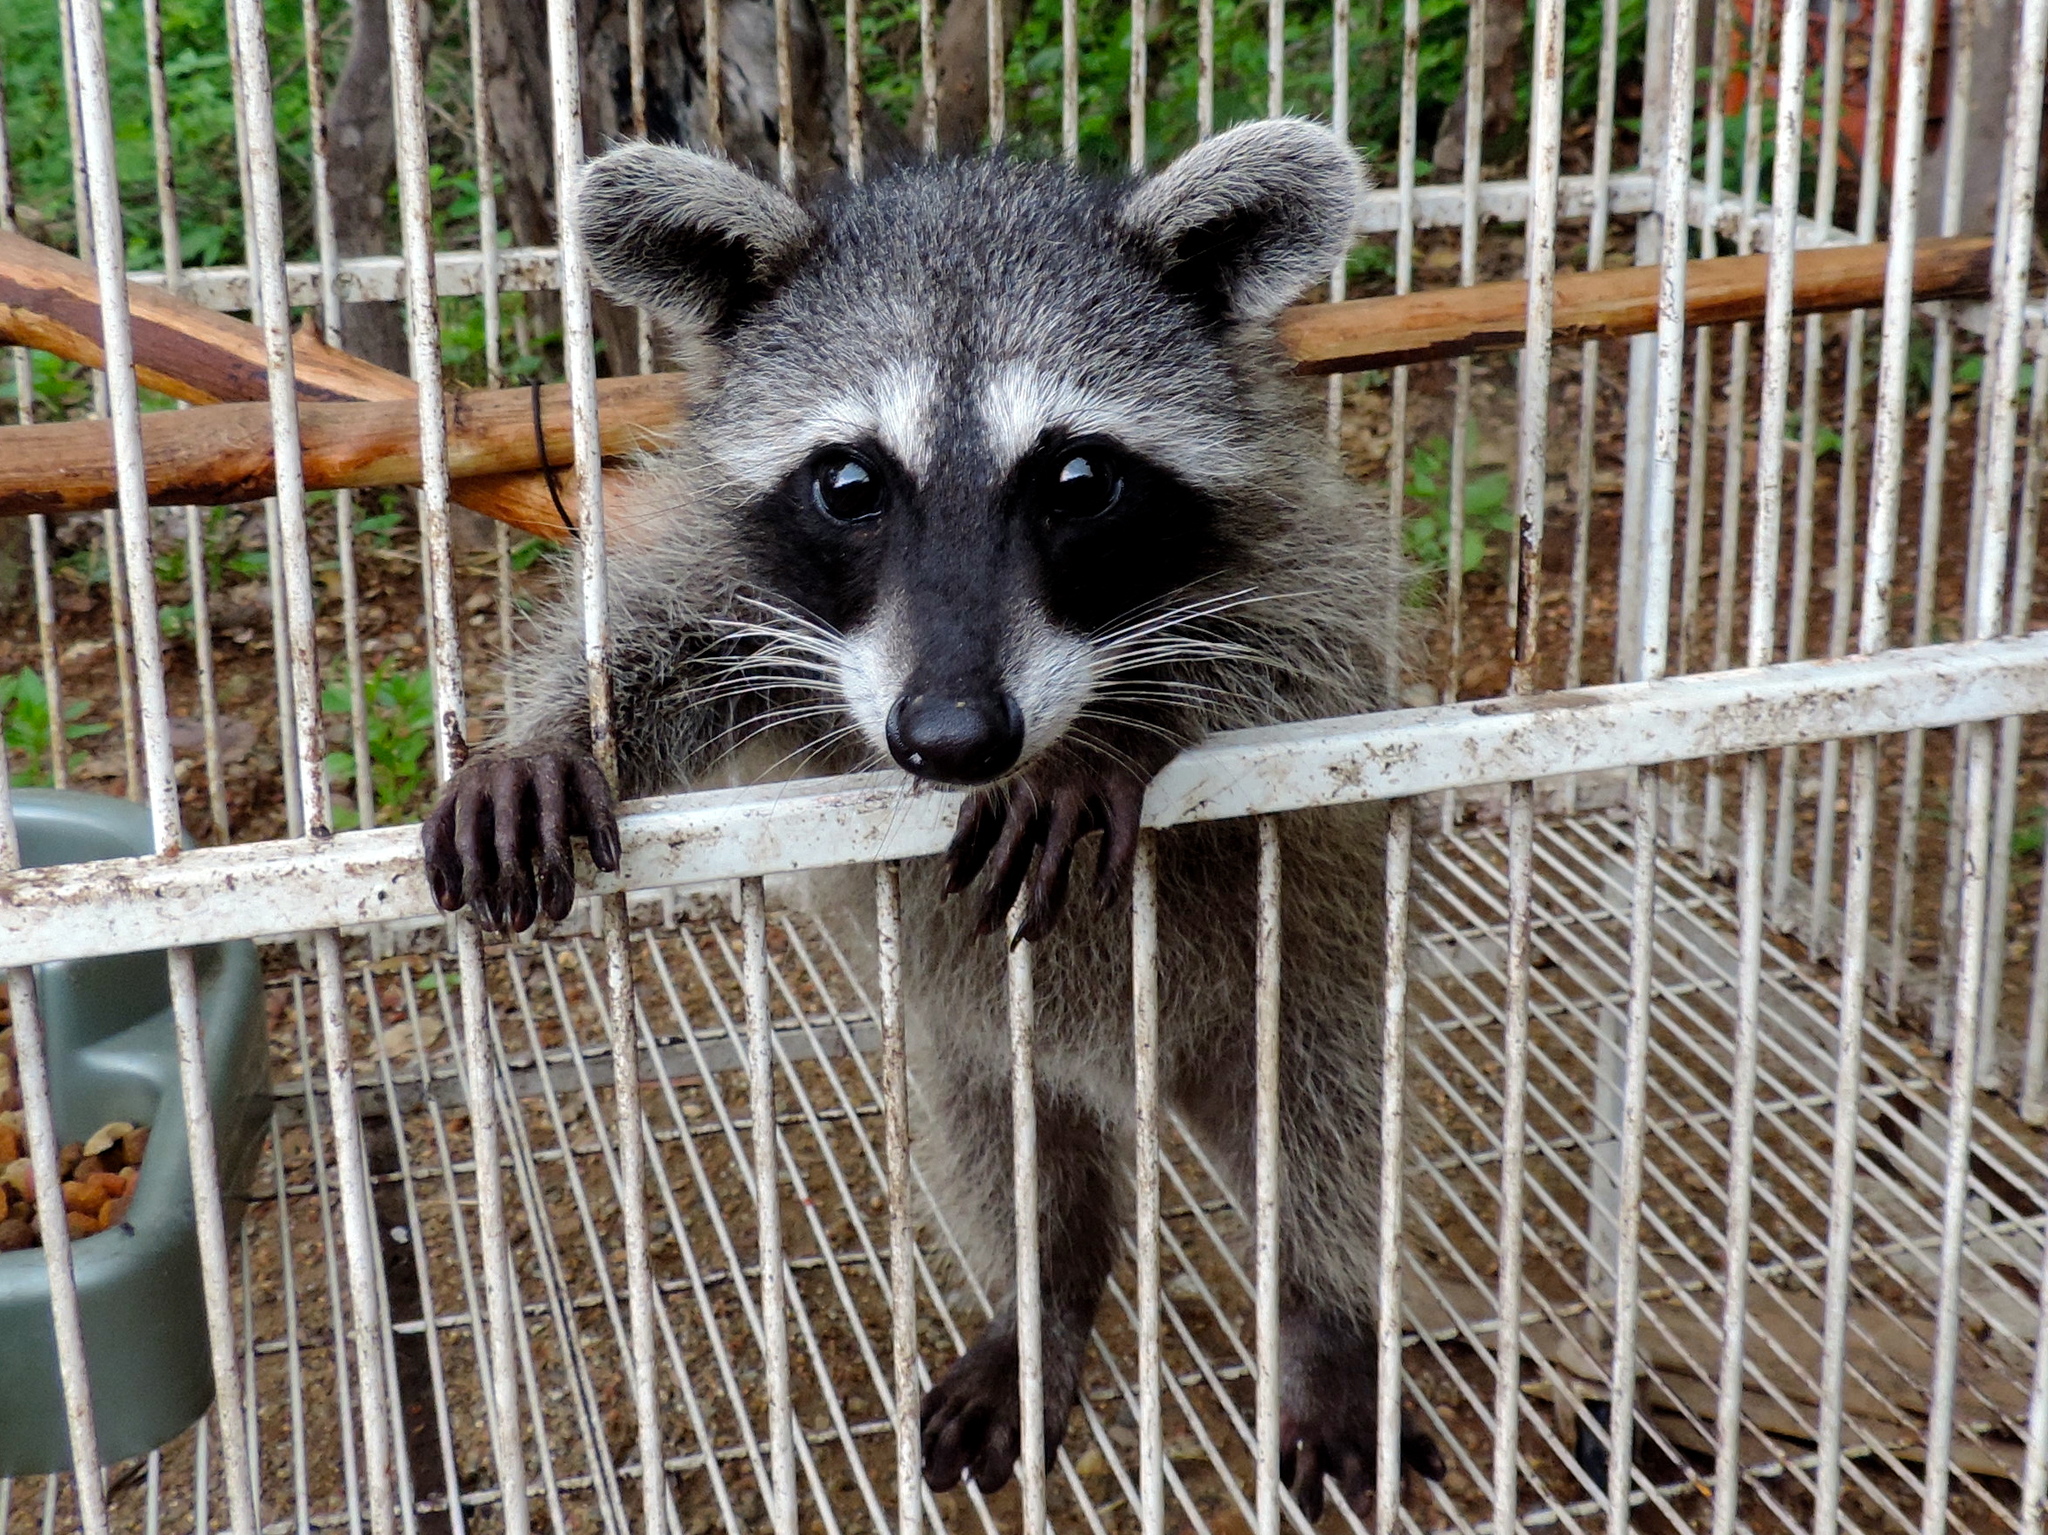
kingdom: Animalia
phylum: Chordata
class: Mammalia
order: Carnivora
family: Procyonidae
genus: Procyon
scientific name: Procyon lotor
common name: Raccoon
